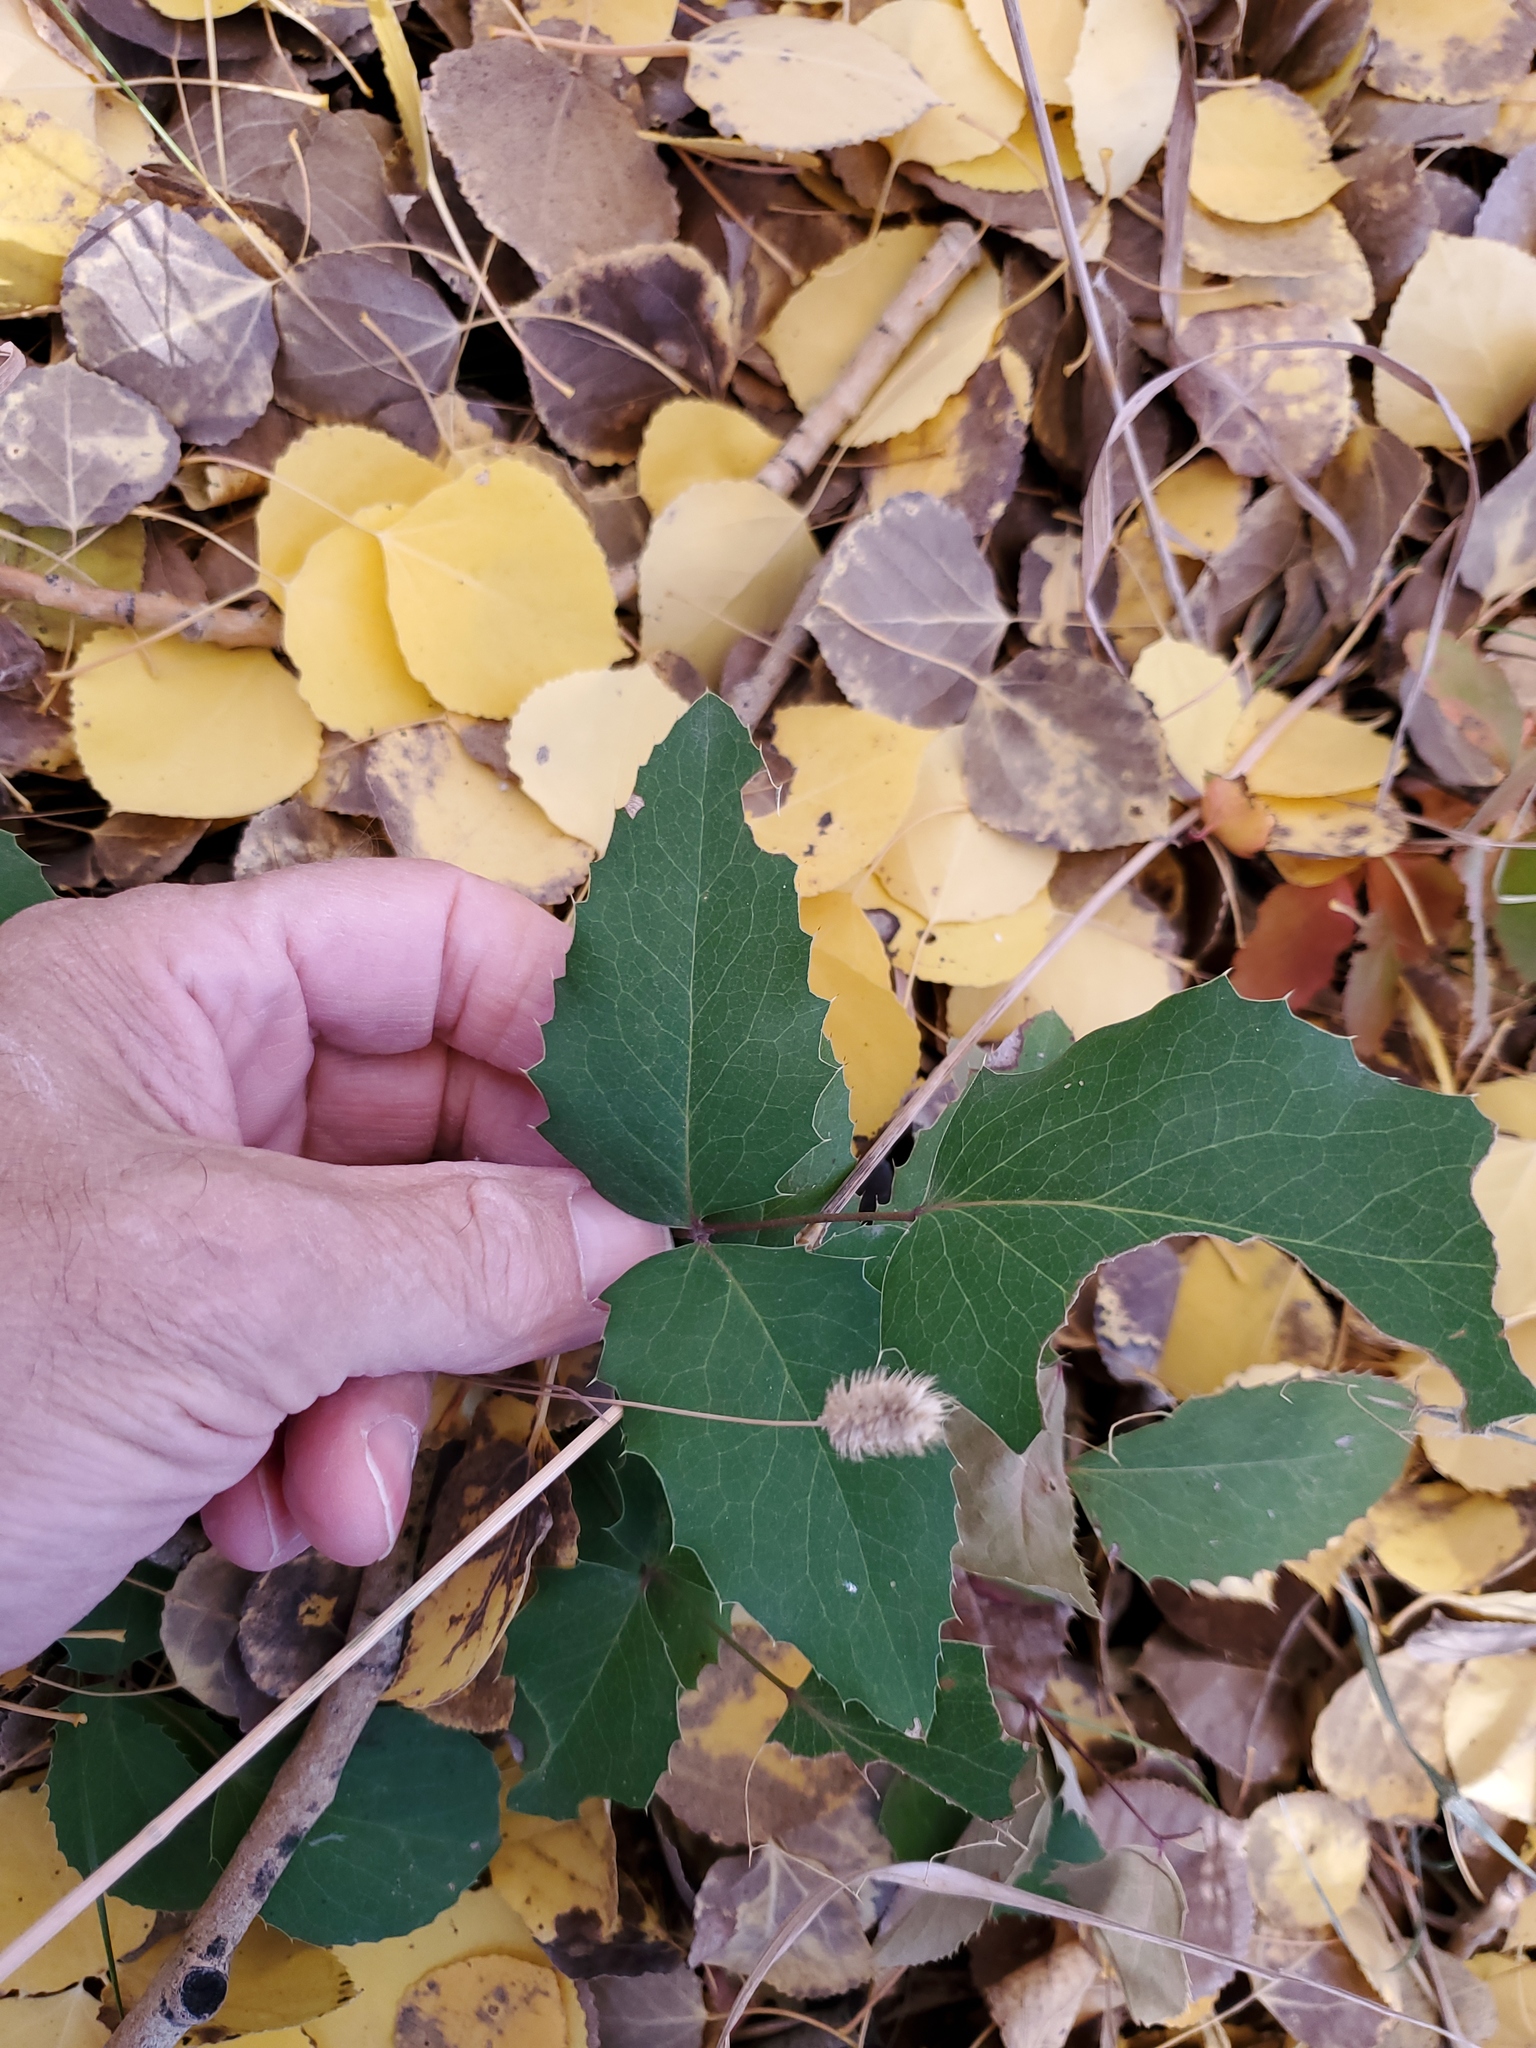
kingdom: Plantae
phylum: Tracheophyta
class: Magnoliopsida
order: Ranunculales
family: Berberidaceae
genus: Mahonia
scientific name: Mahonia repens
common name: Creeping oregon-grape
